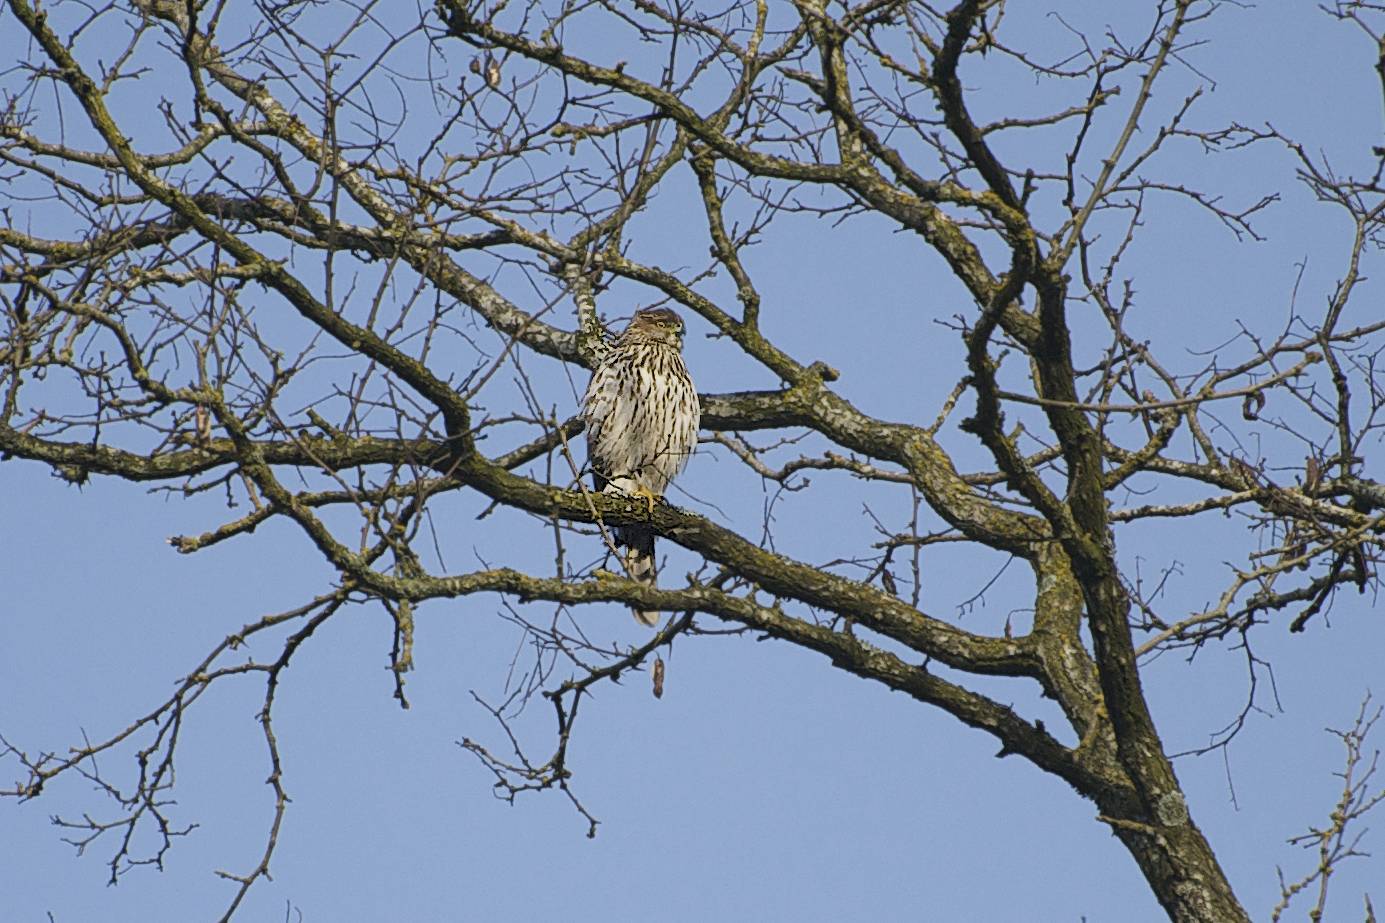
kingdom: Animalia
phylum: Chordata
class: Aves
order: Accipitriformes
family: Accipitridae
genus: Accipiter
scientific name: Accipiter cooperii
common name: Cooper's hawk
